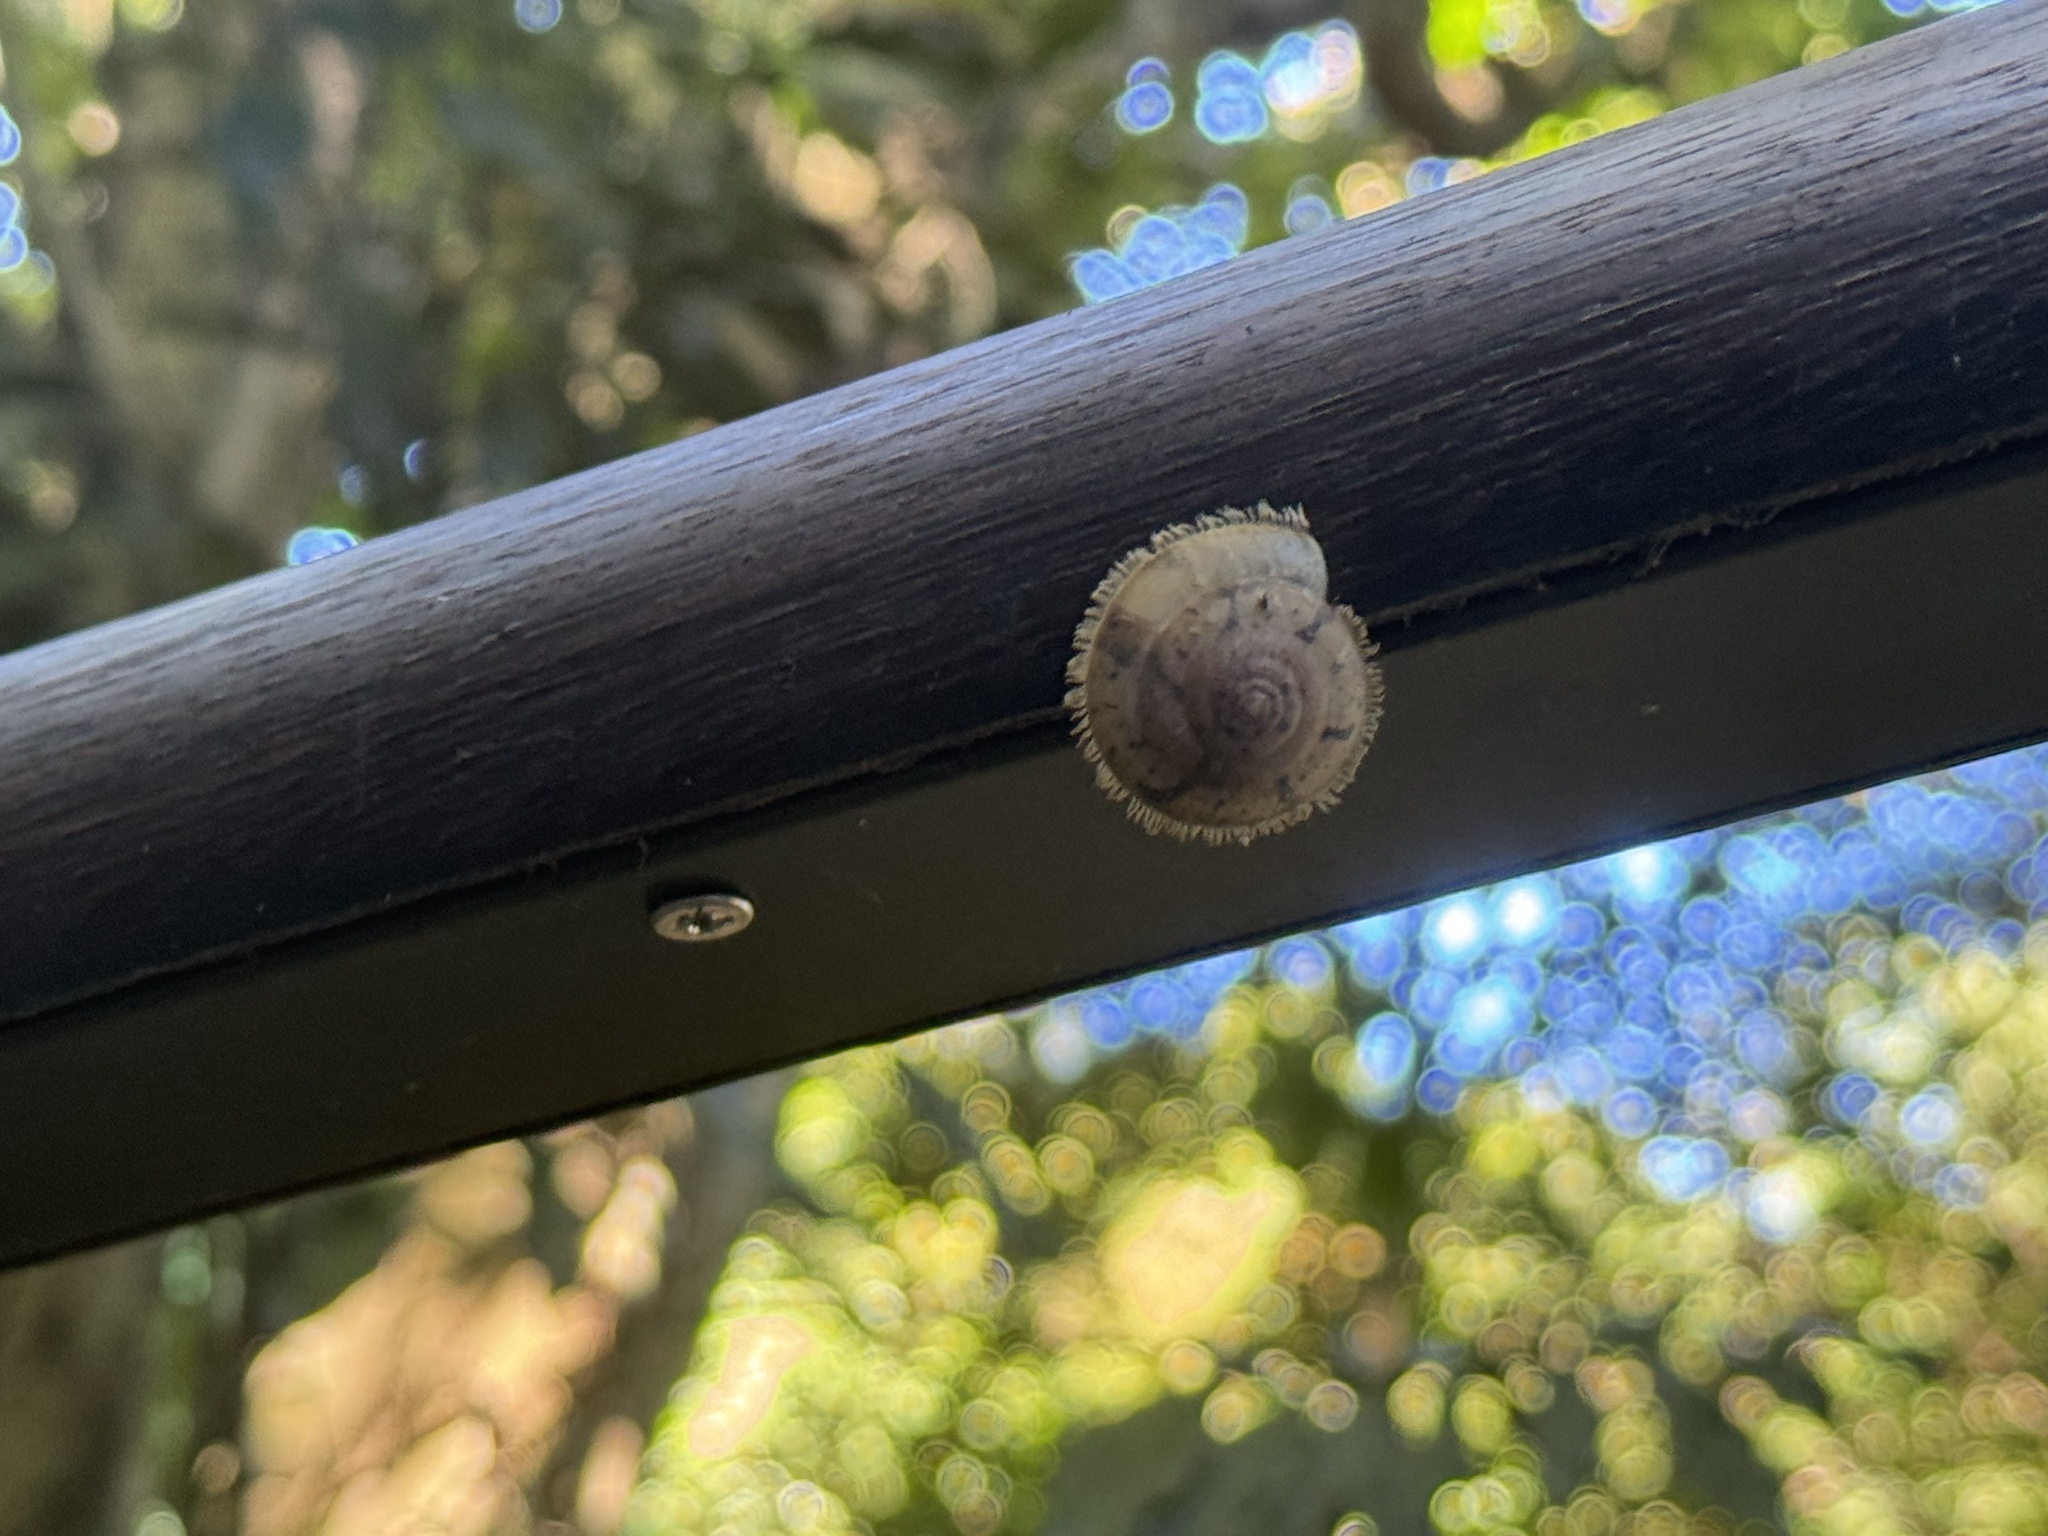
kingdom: Animalia
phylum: Mollusca
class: Gastropoda
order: Stylommatophora
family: Camaenidae
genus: Plectotropis
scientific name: Plectotropis mackensii
